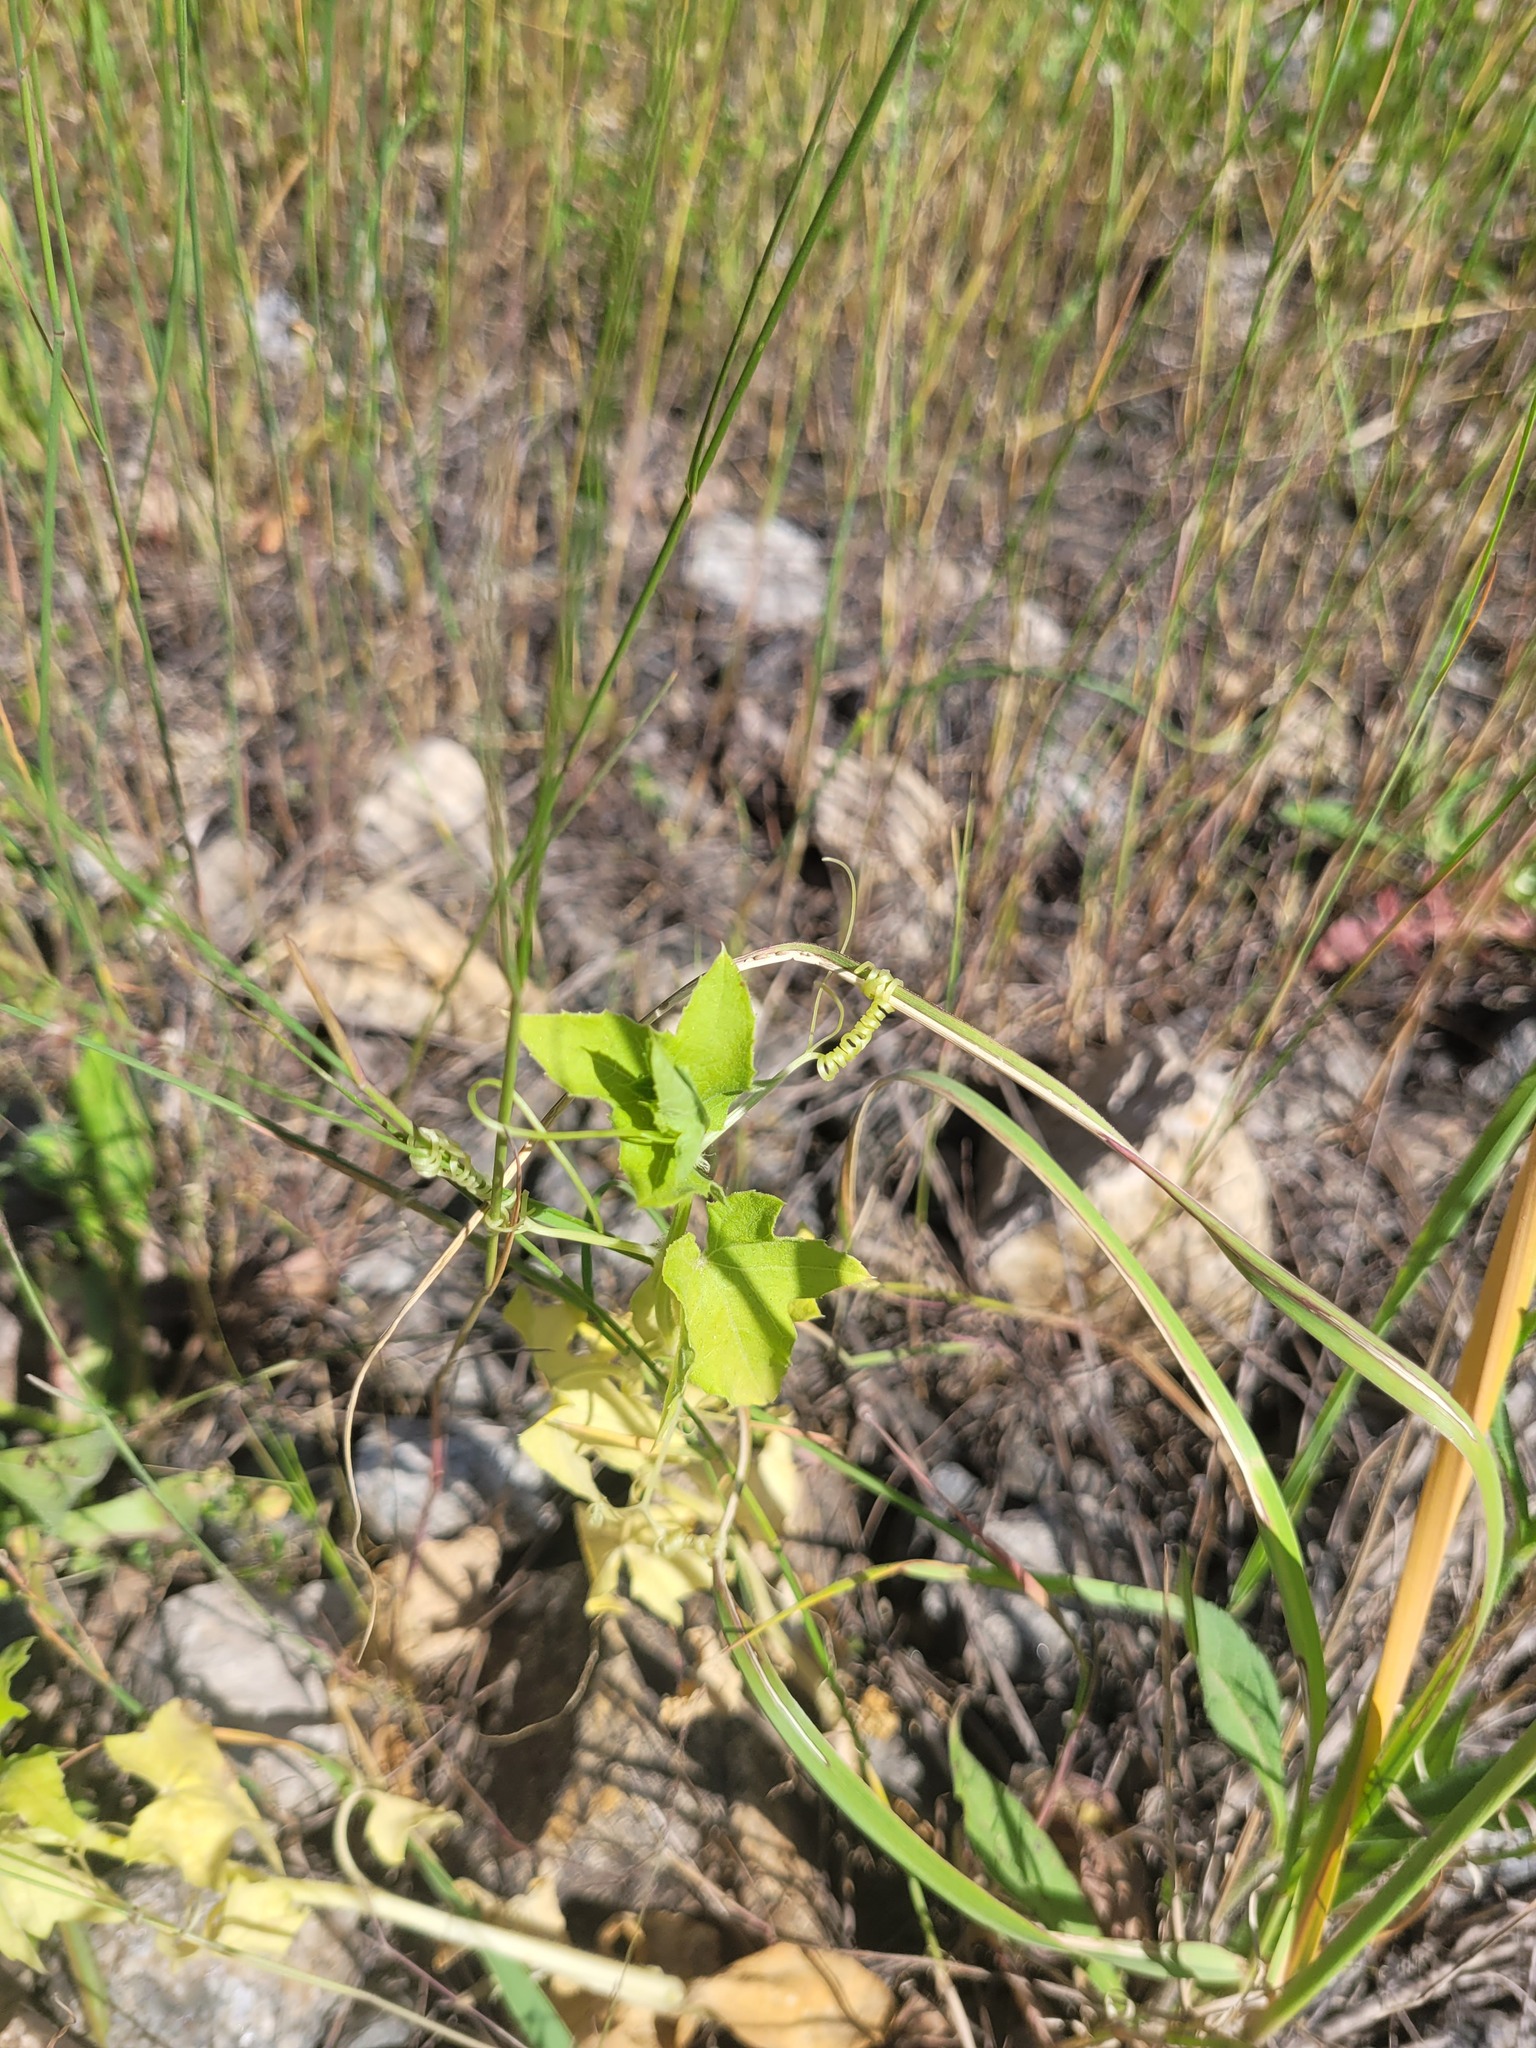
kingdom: Plantae
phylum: Tracheophyta
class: Magnoliopsida
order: Cucurbitales
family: Cucurbitaceae
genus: Echinocystis
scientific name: Echinocystis lobata
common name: Wild cucumber
